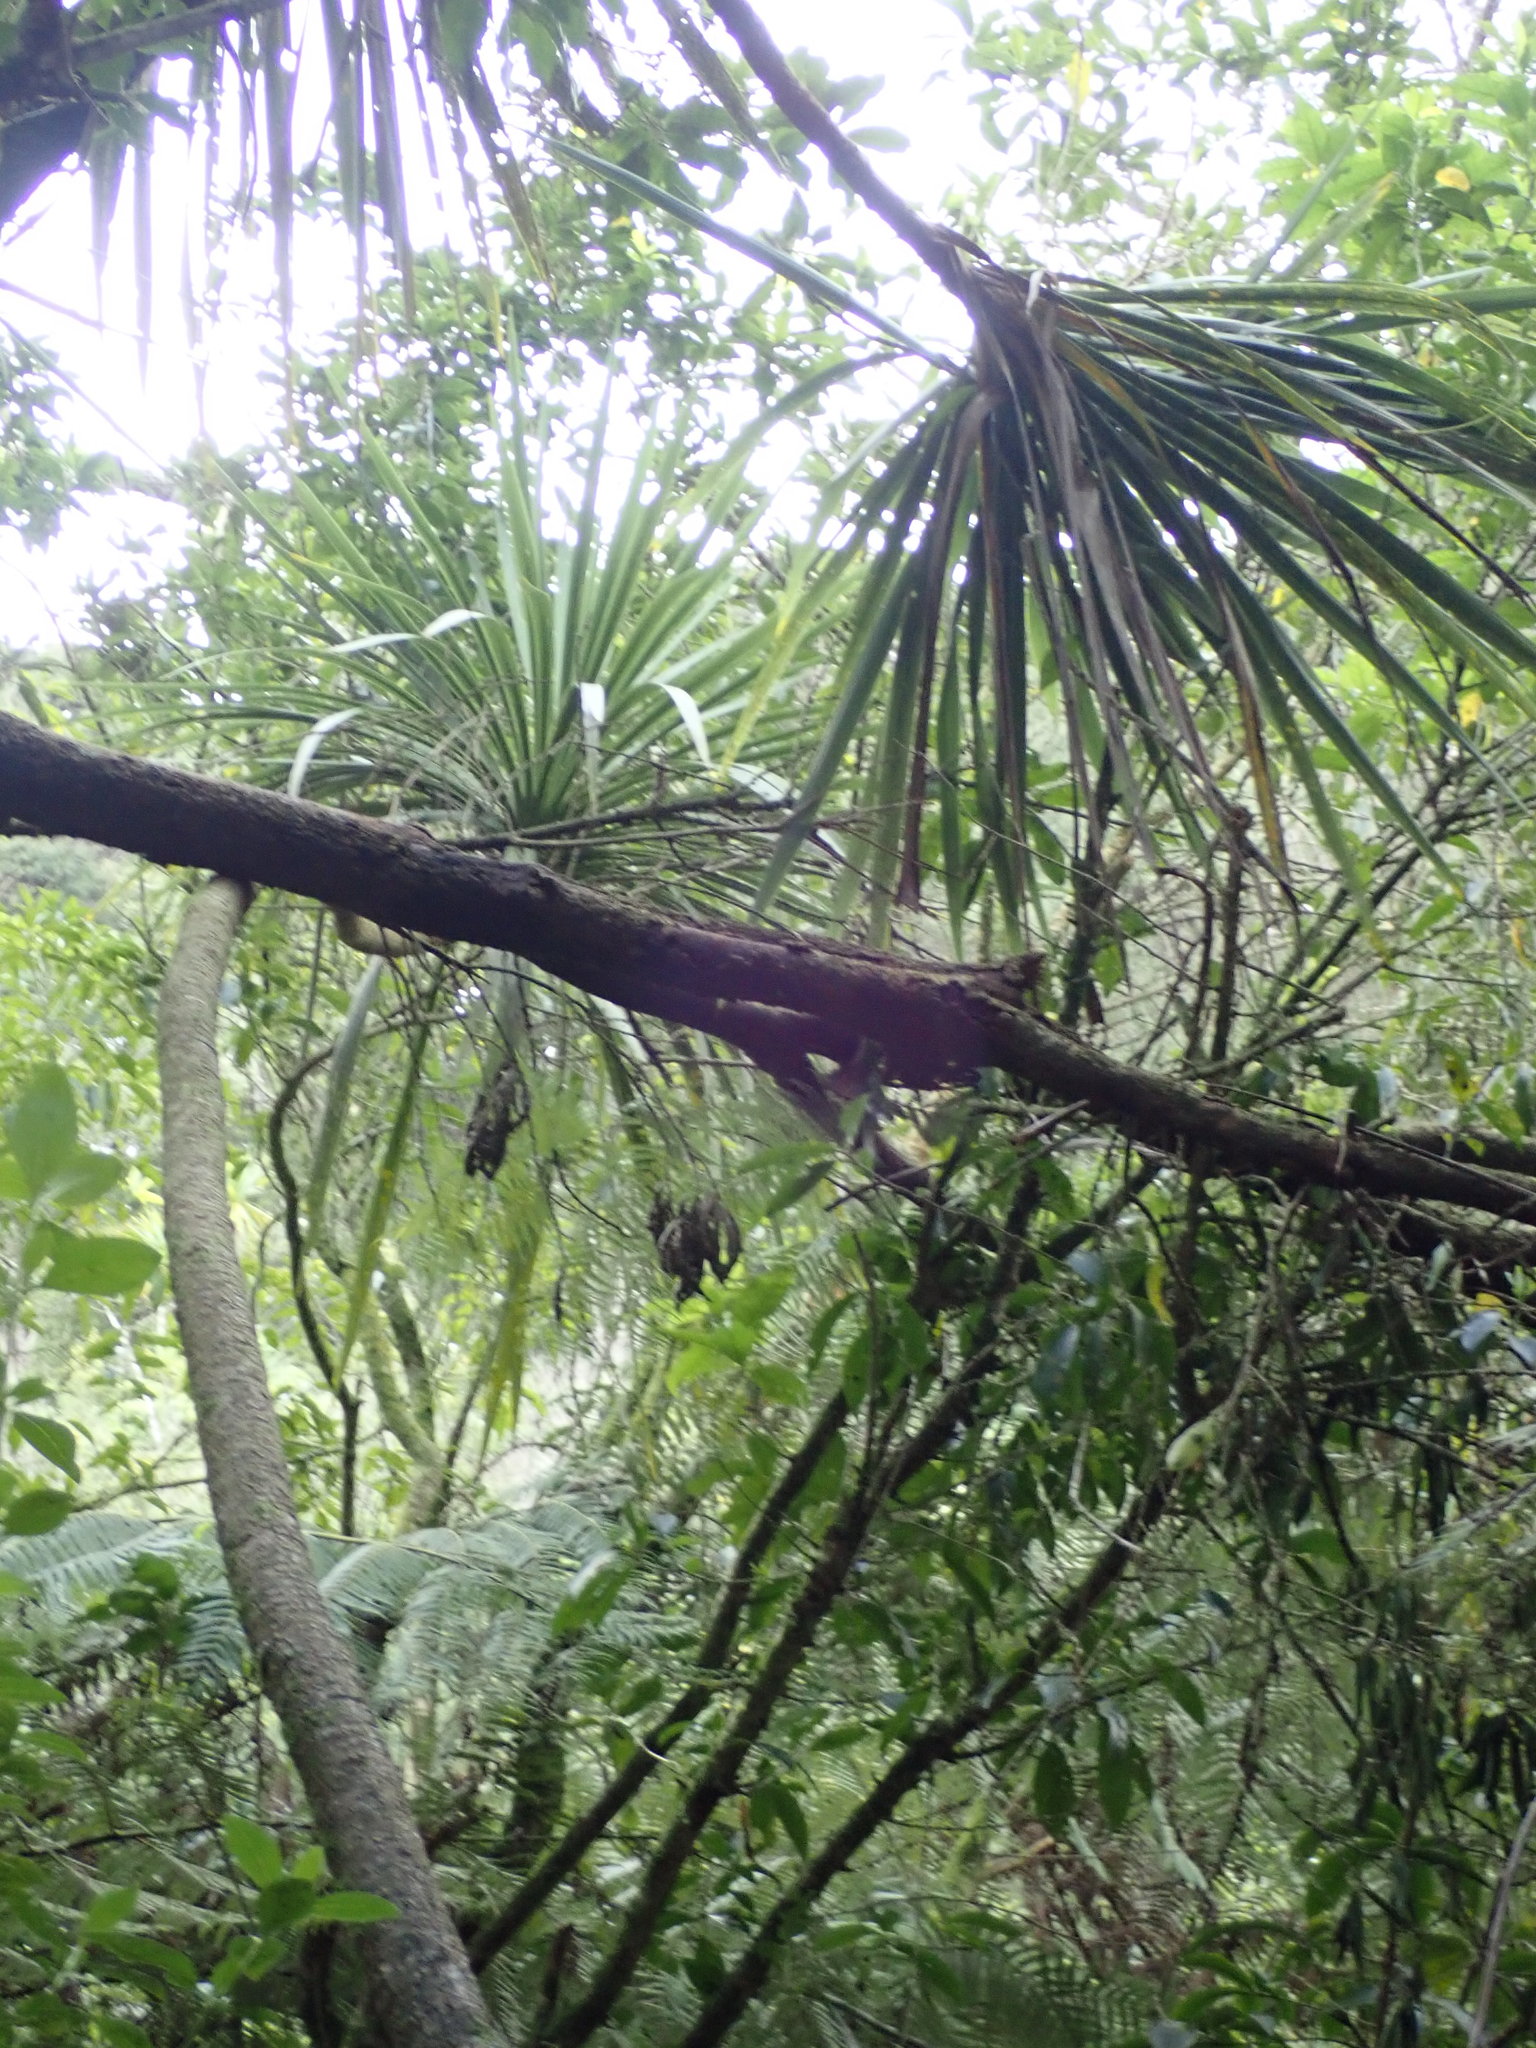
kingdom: Plantae
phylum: Tracheophyta
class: Liliopsida
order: Asparagales
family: Asparagaceae
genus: Cordyline
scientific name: Cordyline australis
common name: Cabbage-palm
